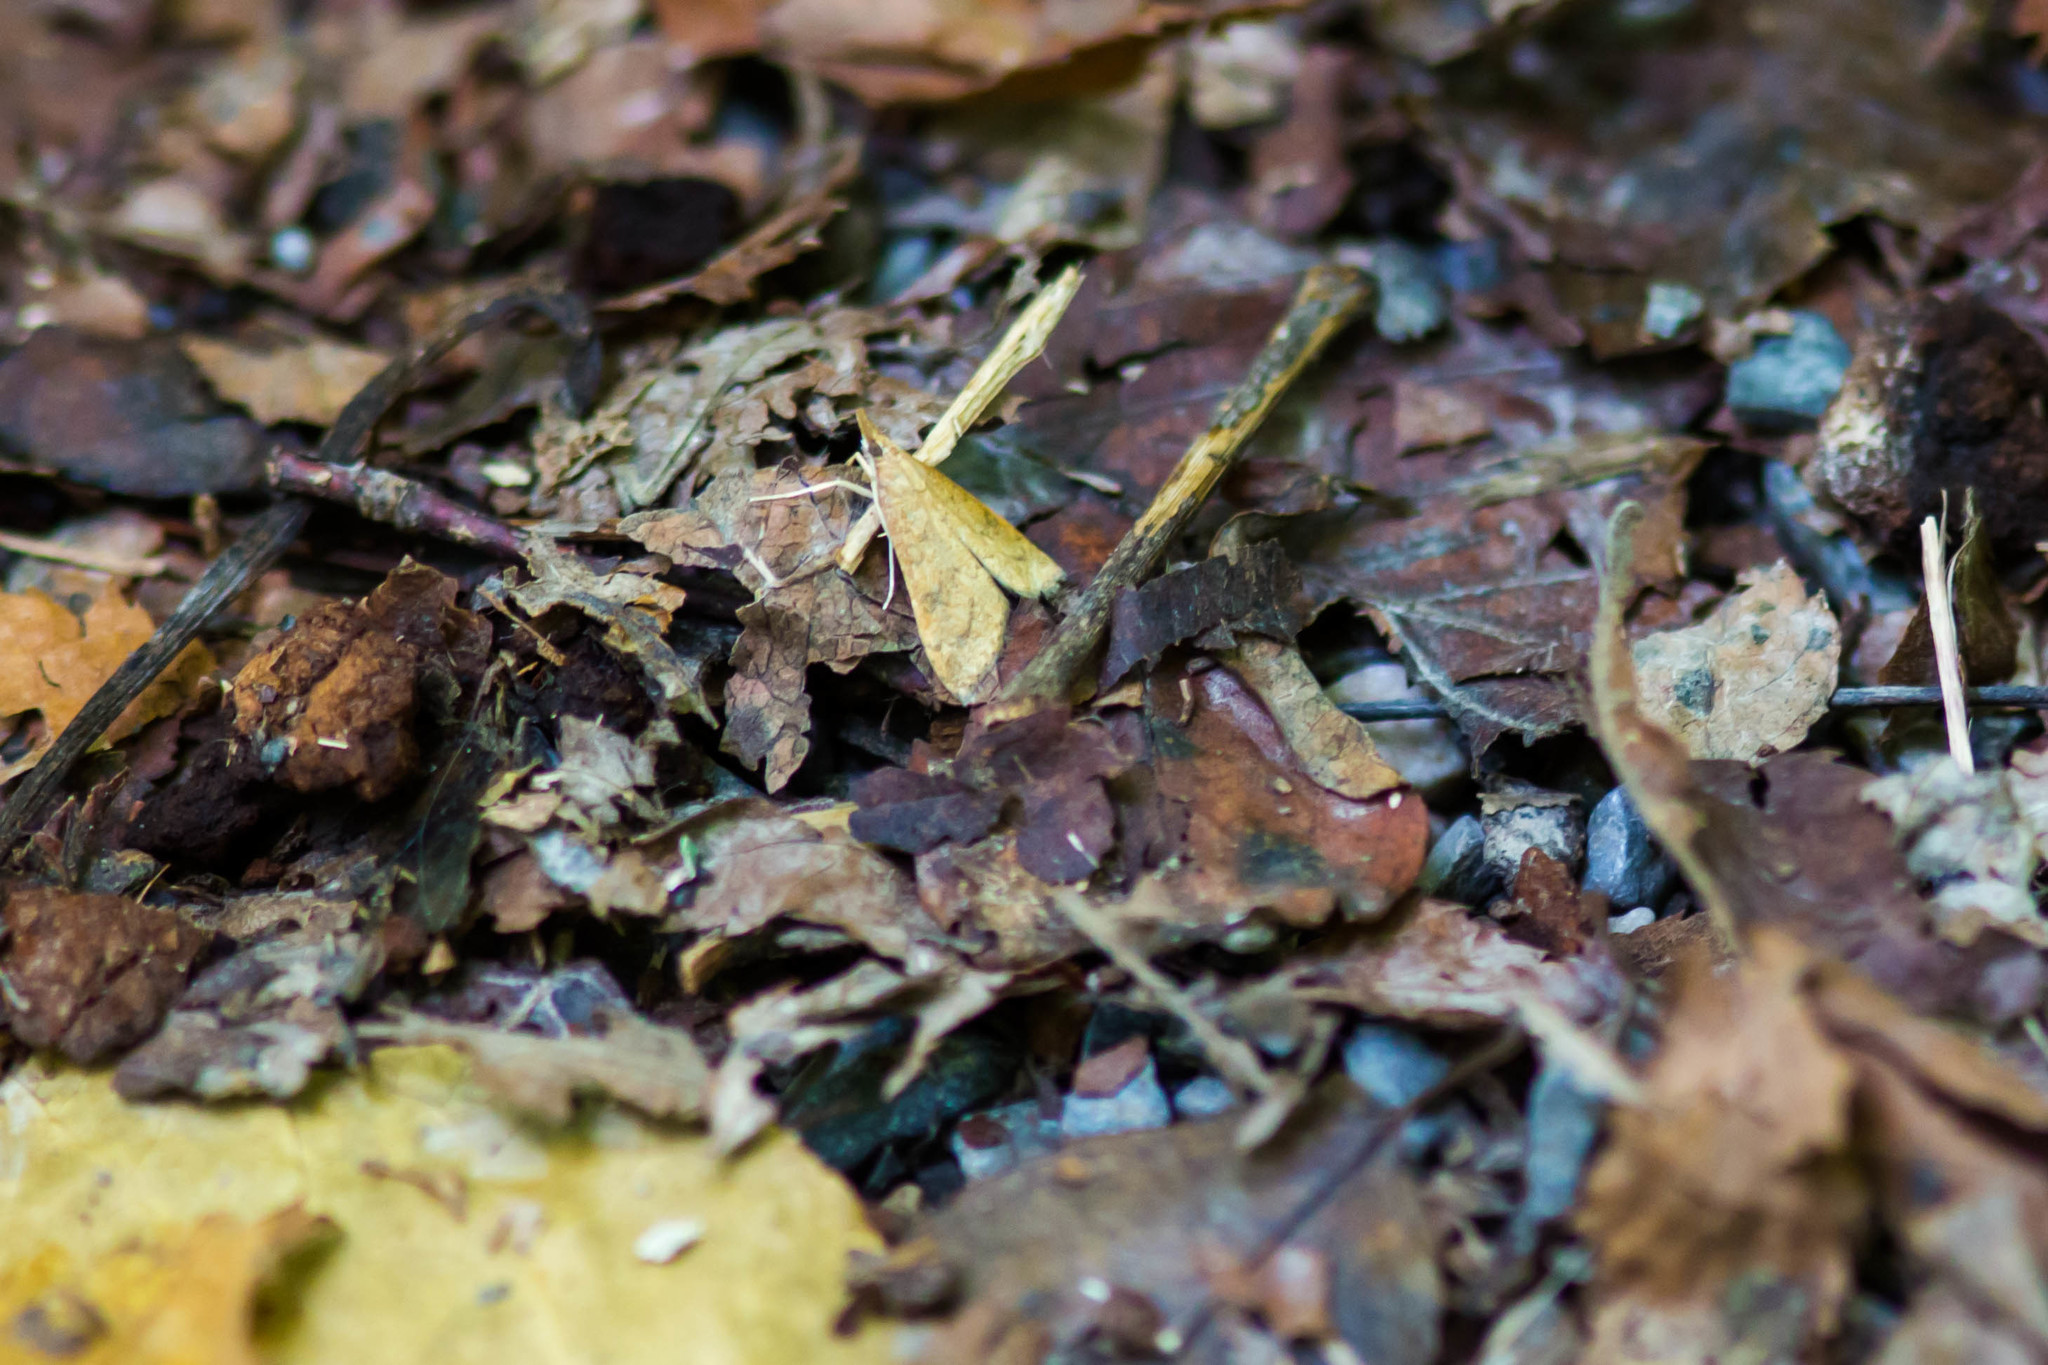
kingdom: Animalia
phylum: Arthropoda
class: Insecta
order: Lepidoptera
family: Crambidae
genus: Udea
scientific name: Udea rubigalis
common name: Celery leaftier moth
